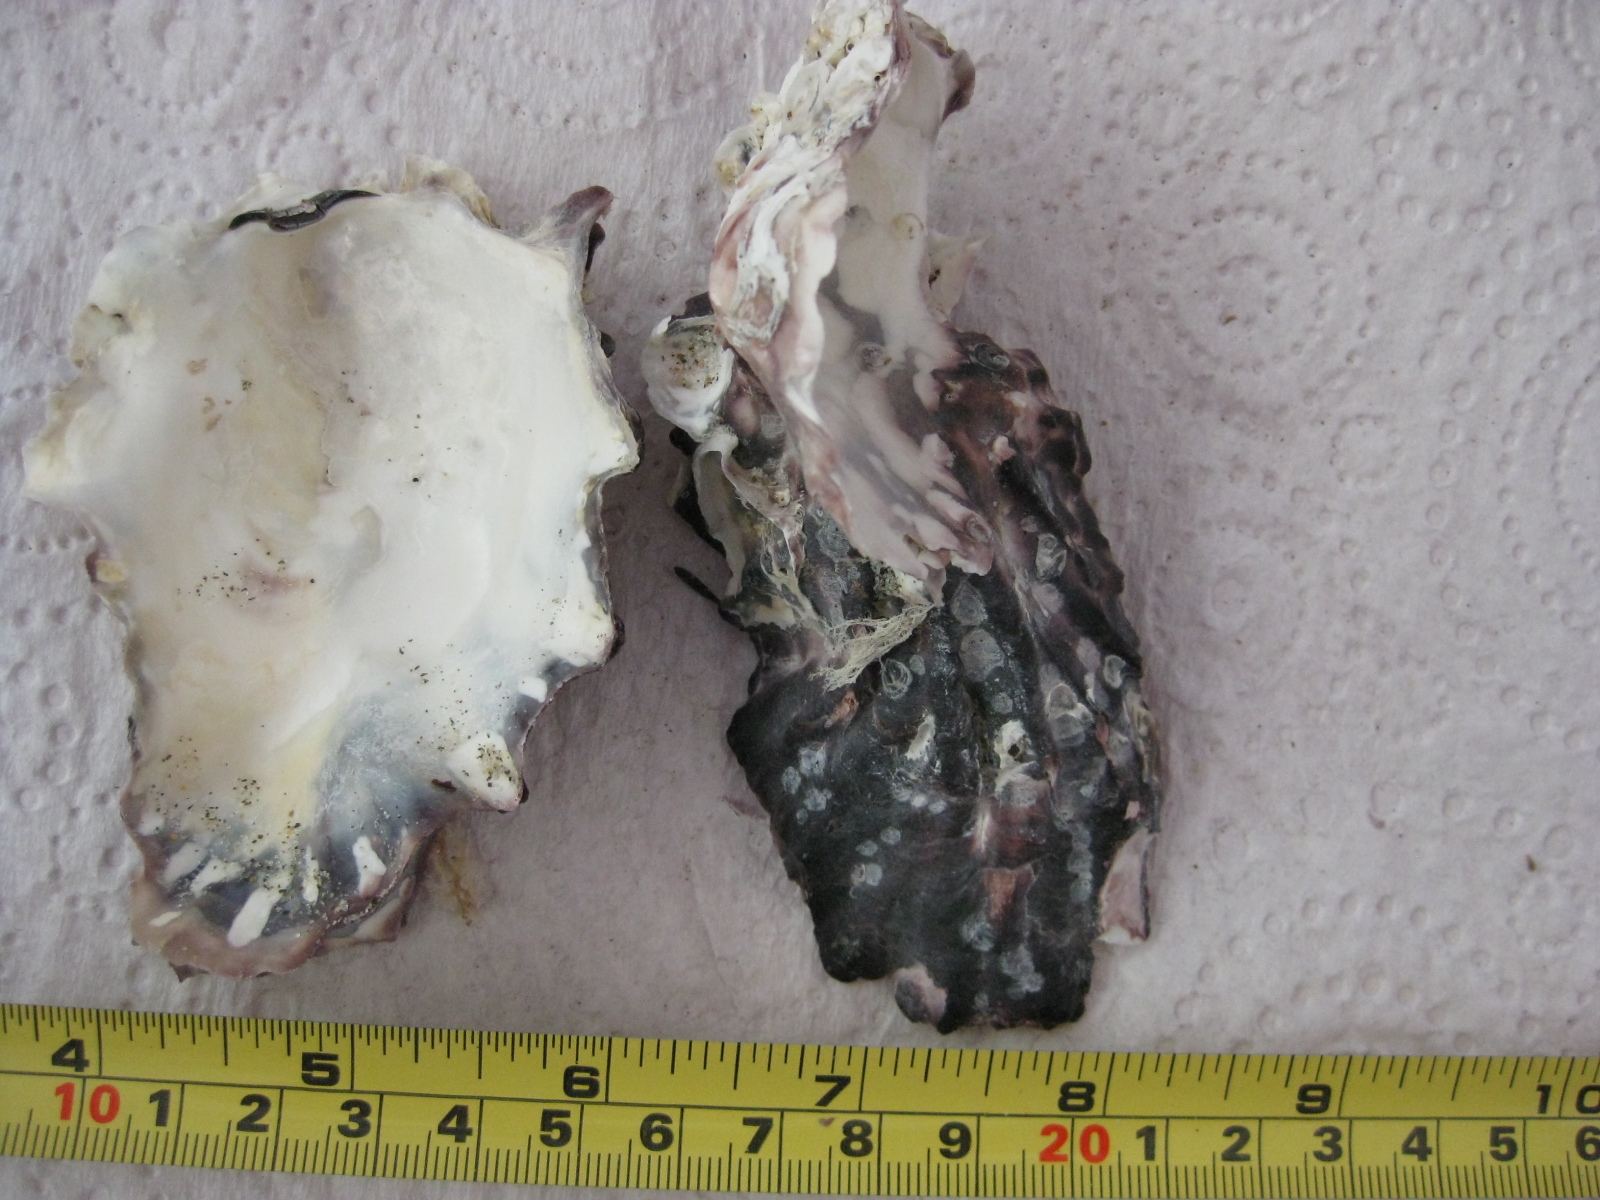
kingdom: Animalia
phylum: Mollusca
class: Bivalvia
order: Ostreida
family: Ostreidae
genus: Magallana
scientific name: Magallana gigas
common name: Pacific oyster
